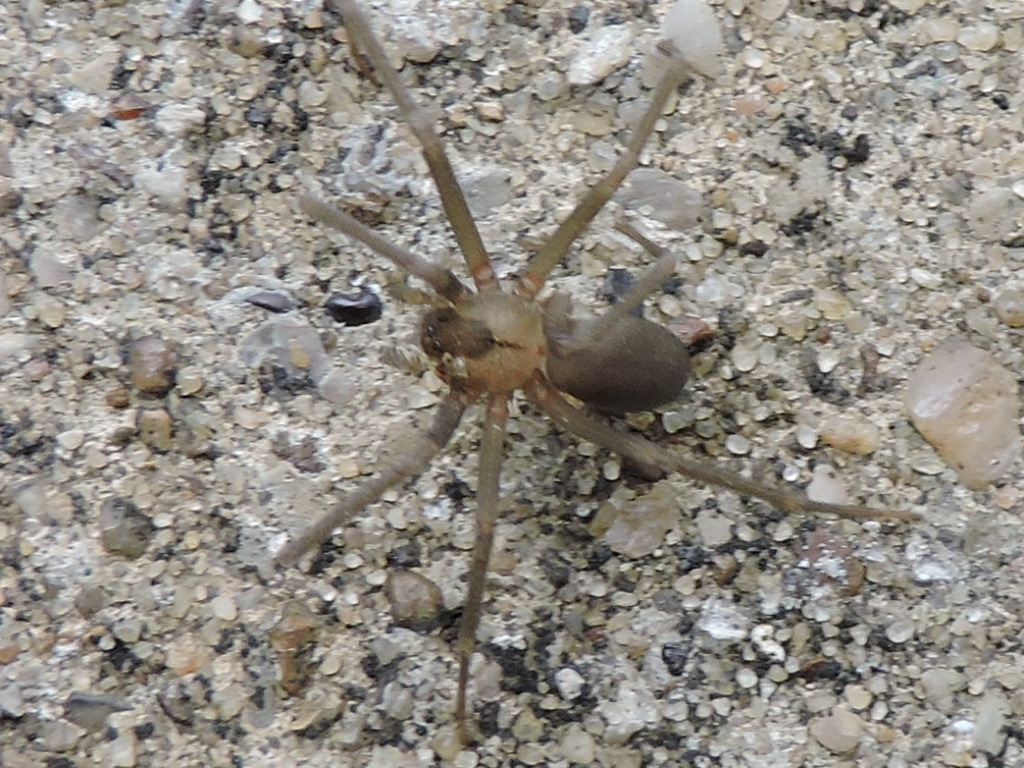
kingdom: Animalia
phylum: Arthropoda
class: Arachnida
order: Araneae
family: Sicariidae
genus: Loxosceles
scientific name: Loxosceles reclusa
